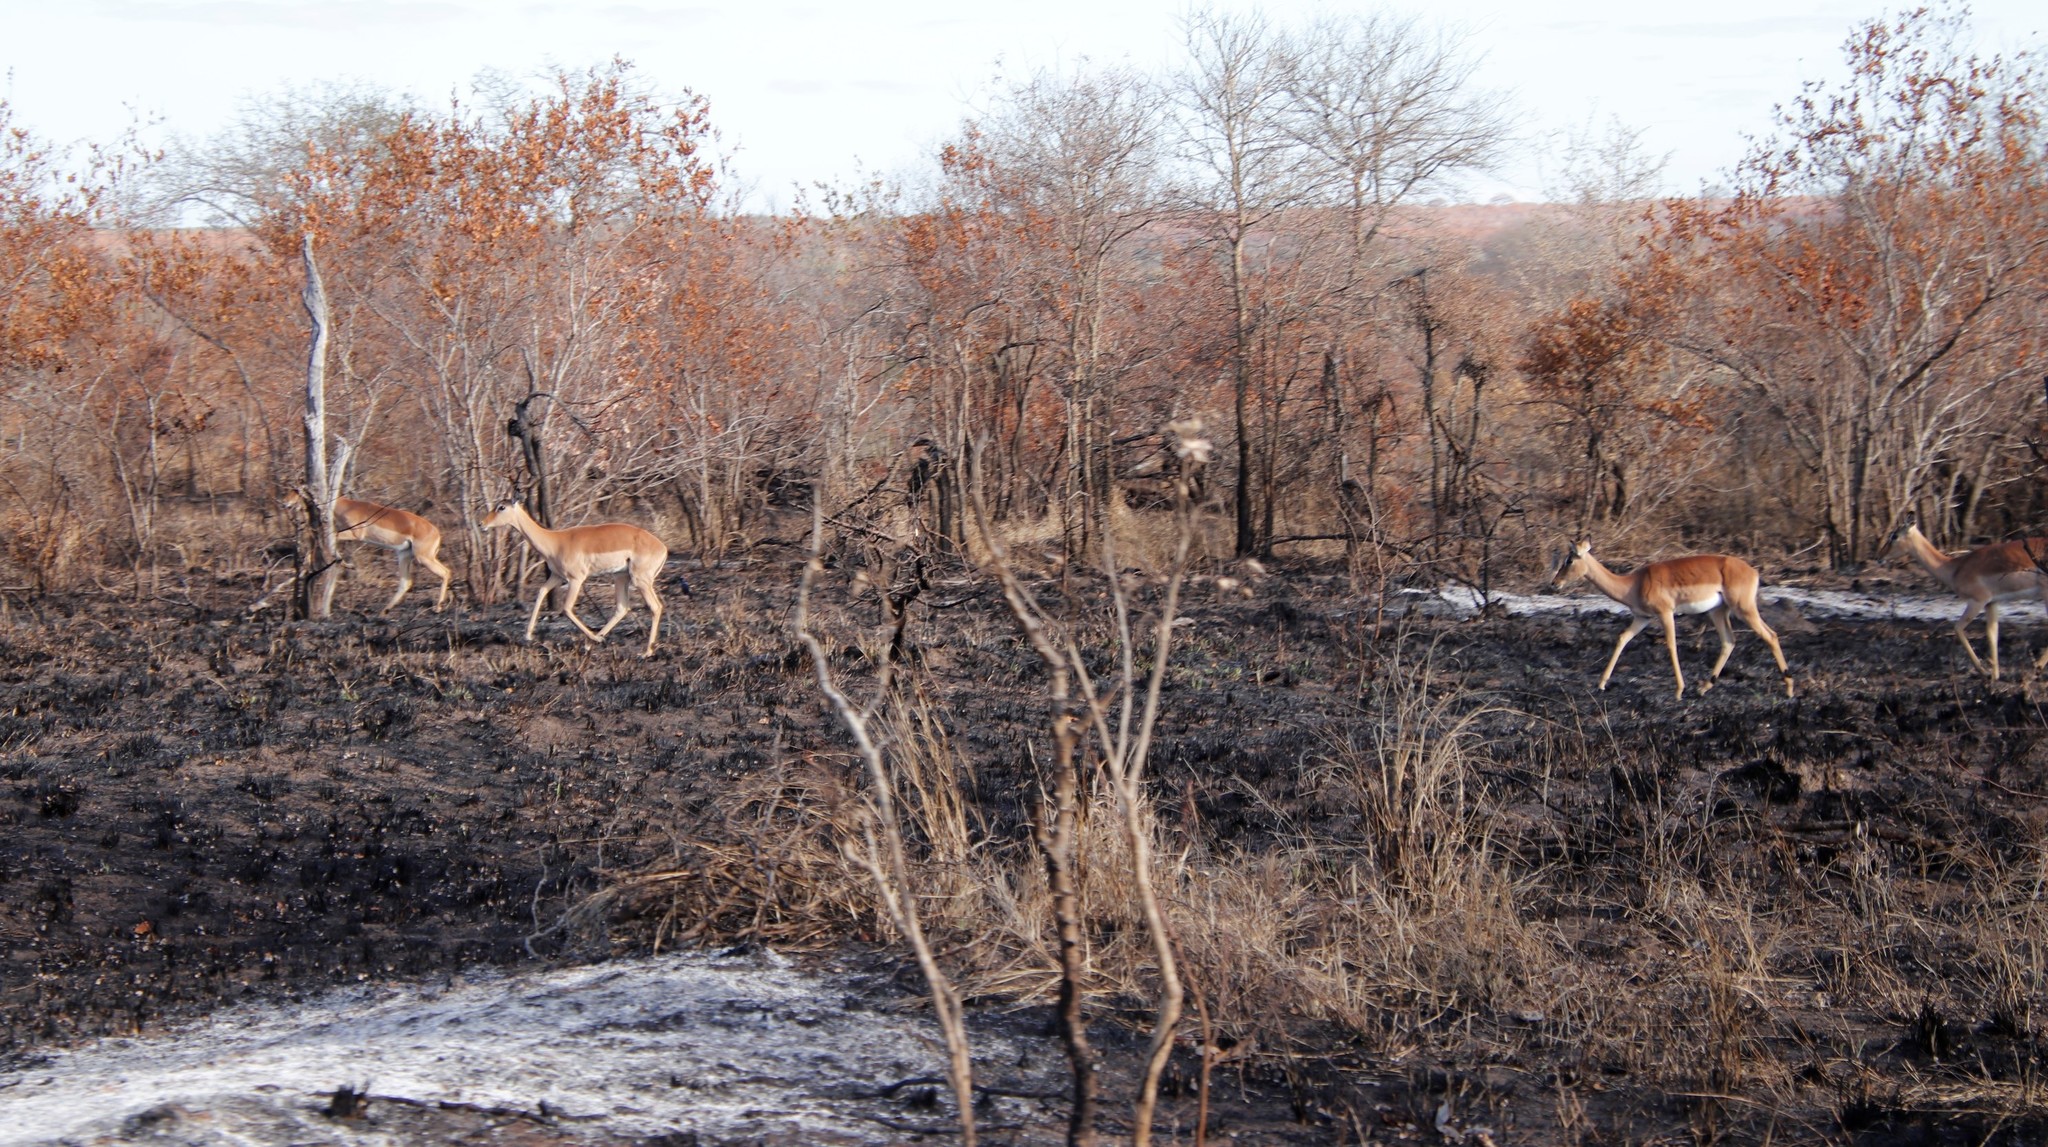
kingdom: Animalia
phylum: Chordata
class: Mammalia
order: Artiodactyla
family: Bovidae
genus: Aepyceros
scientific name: Aepyceros melampus
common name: Impala
